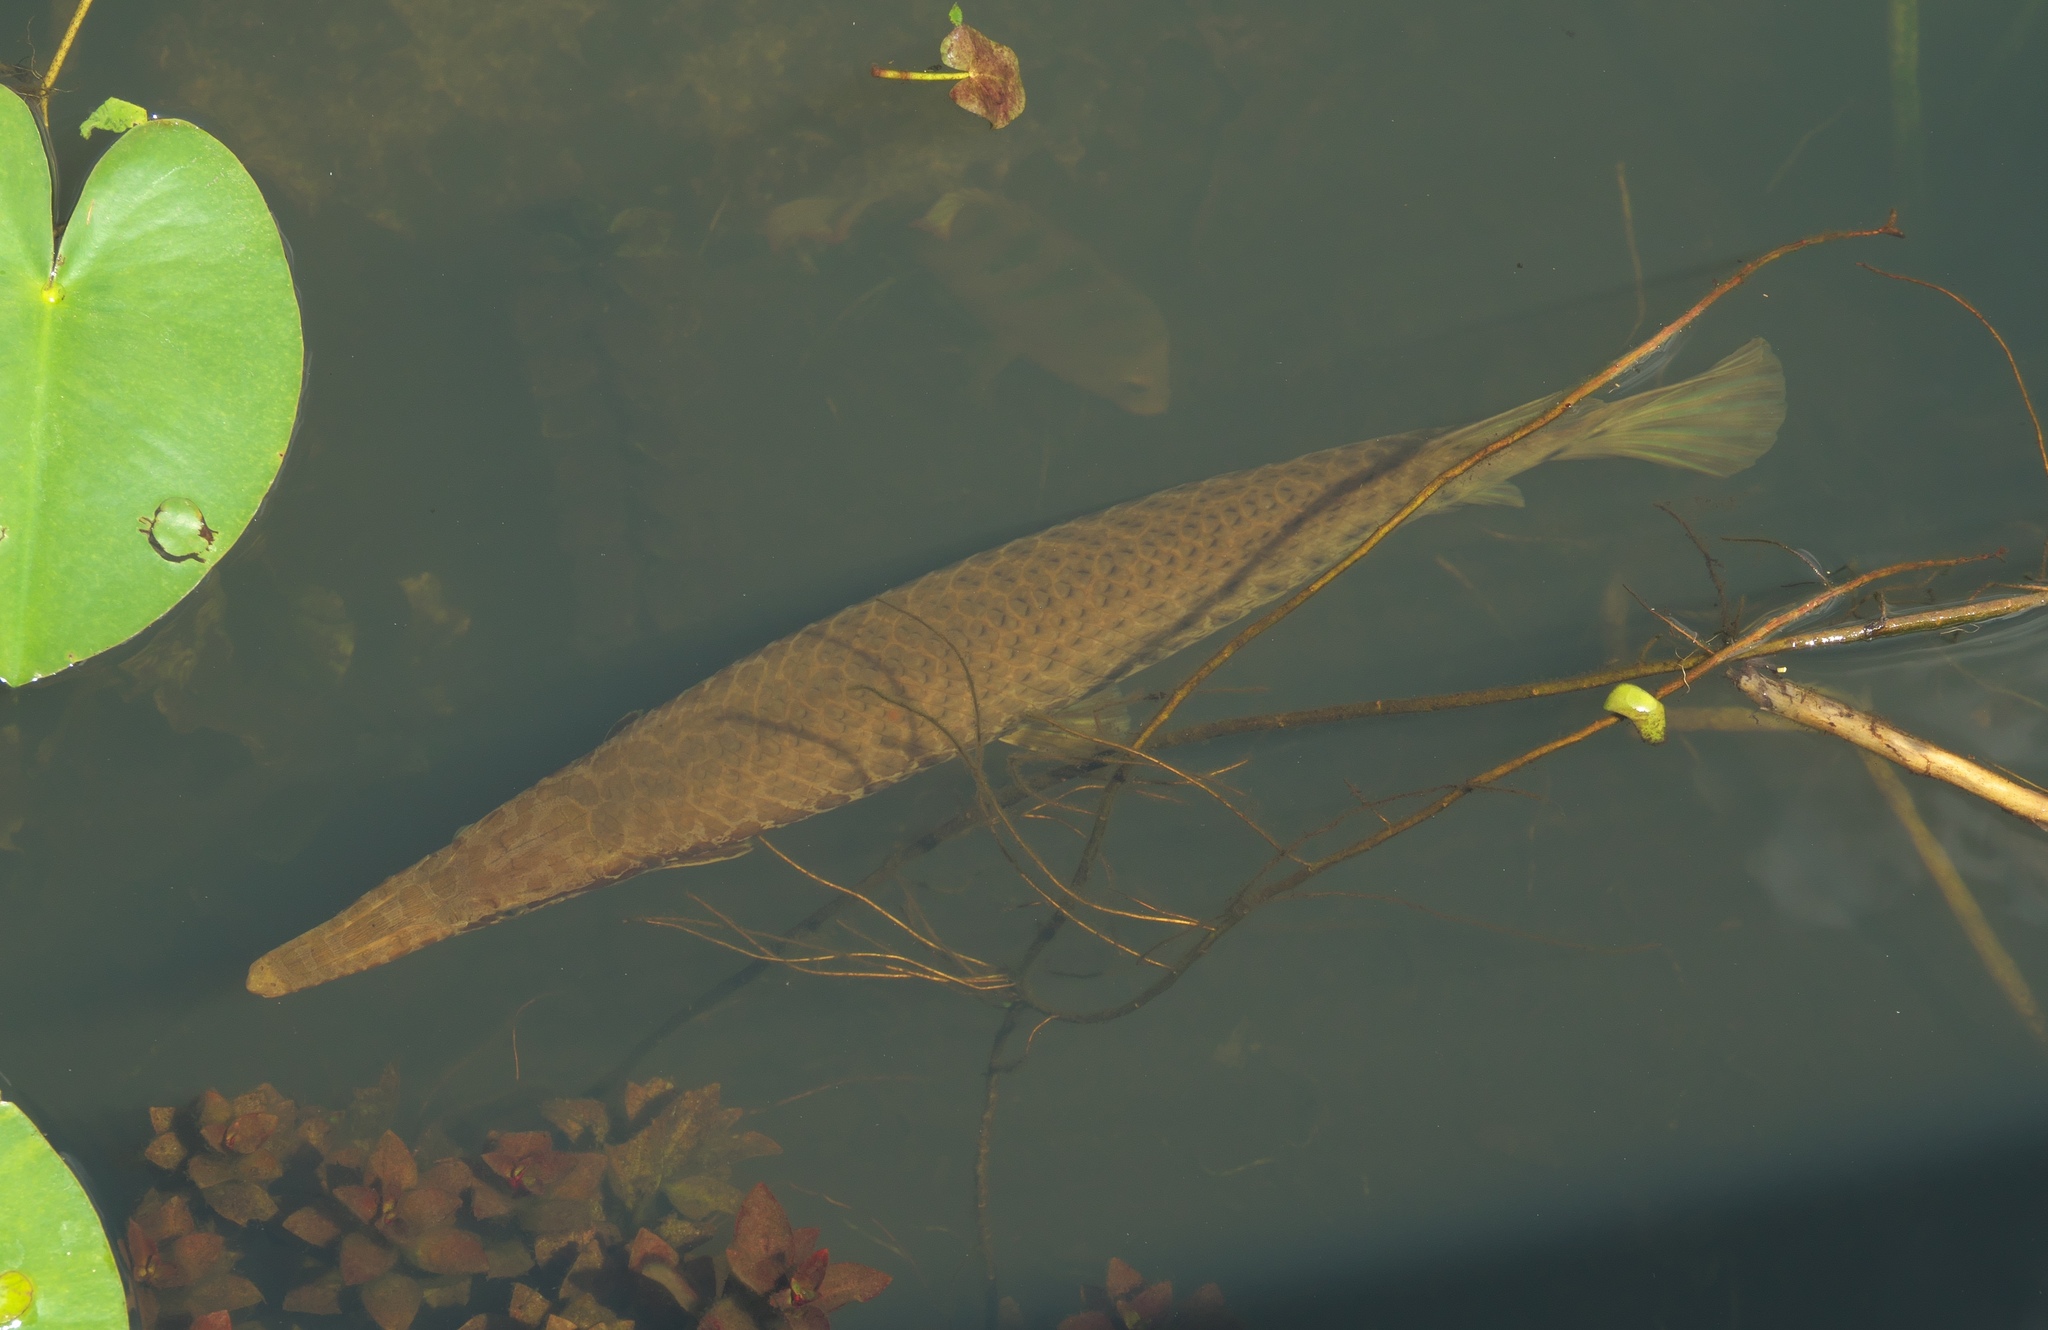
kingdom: Animalia
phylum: Chordata
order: Lepisosteiformes
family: Lepisosteidae
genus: Lepisosteus
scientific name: Lepisosteus platyrhincus
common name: Florida gar
